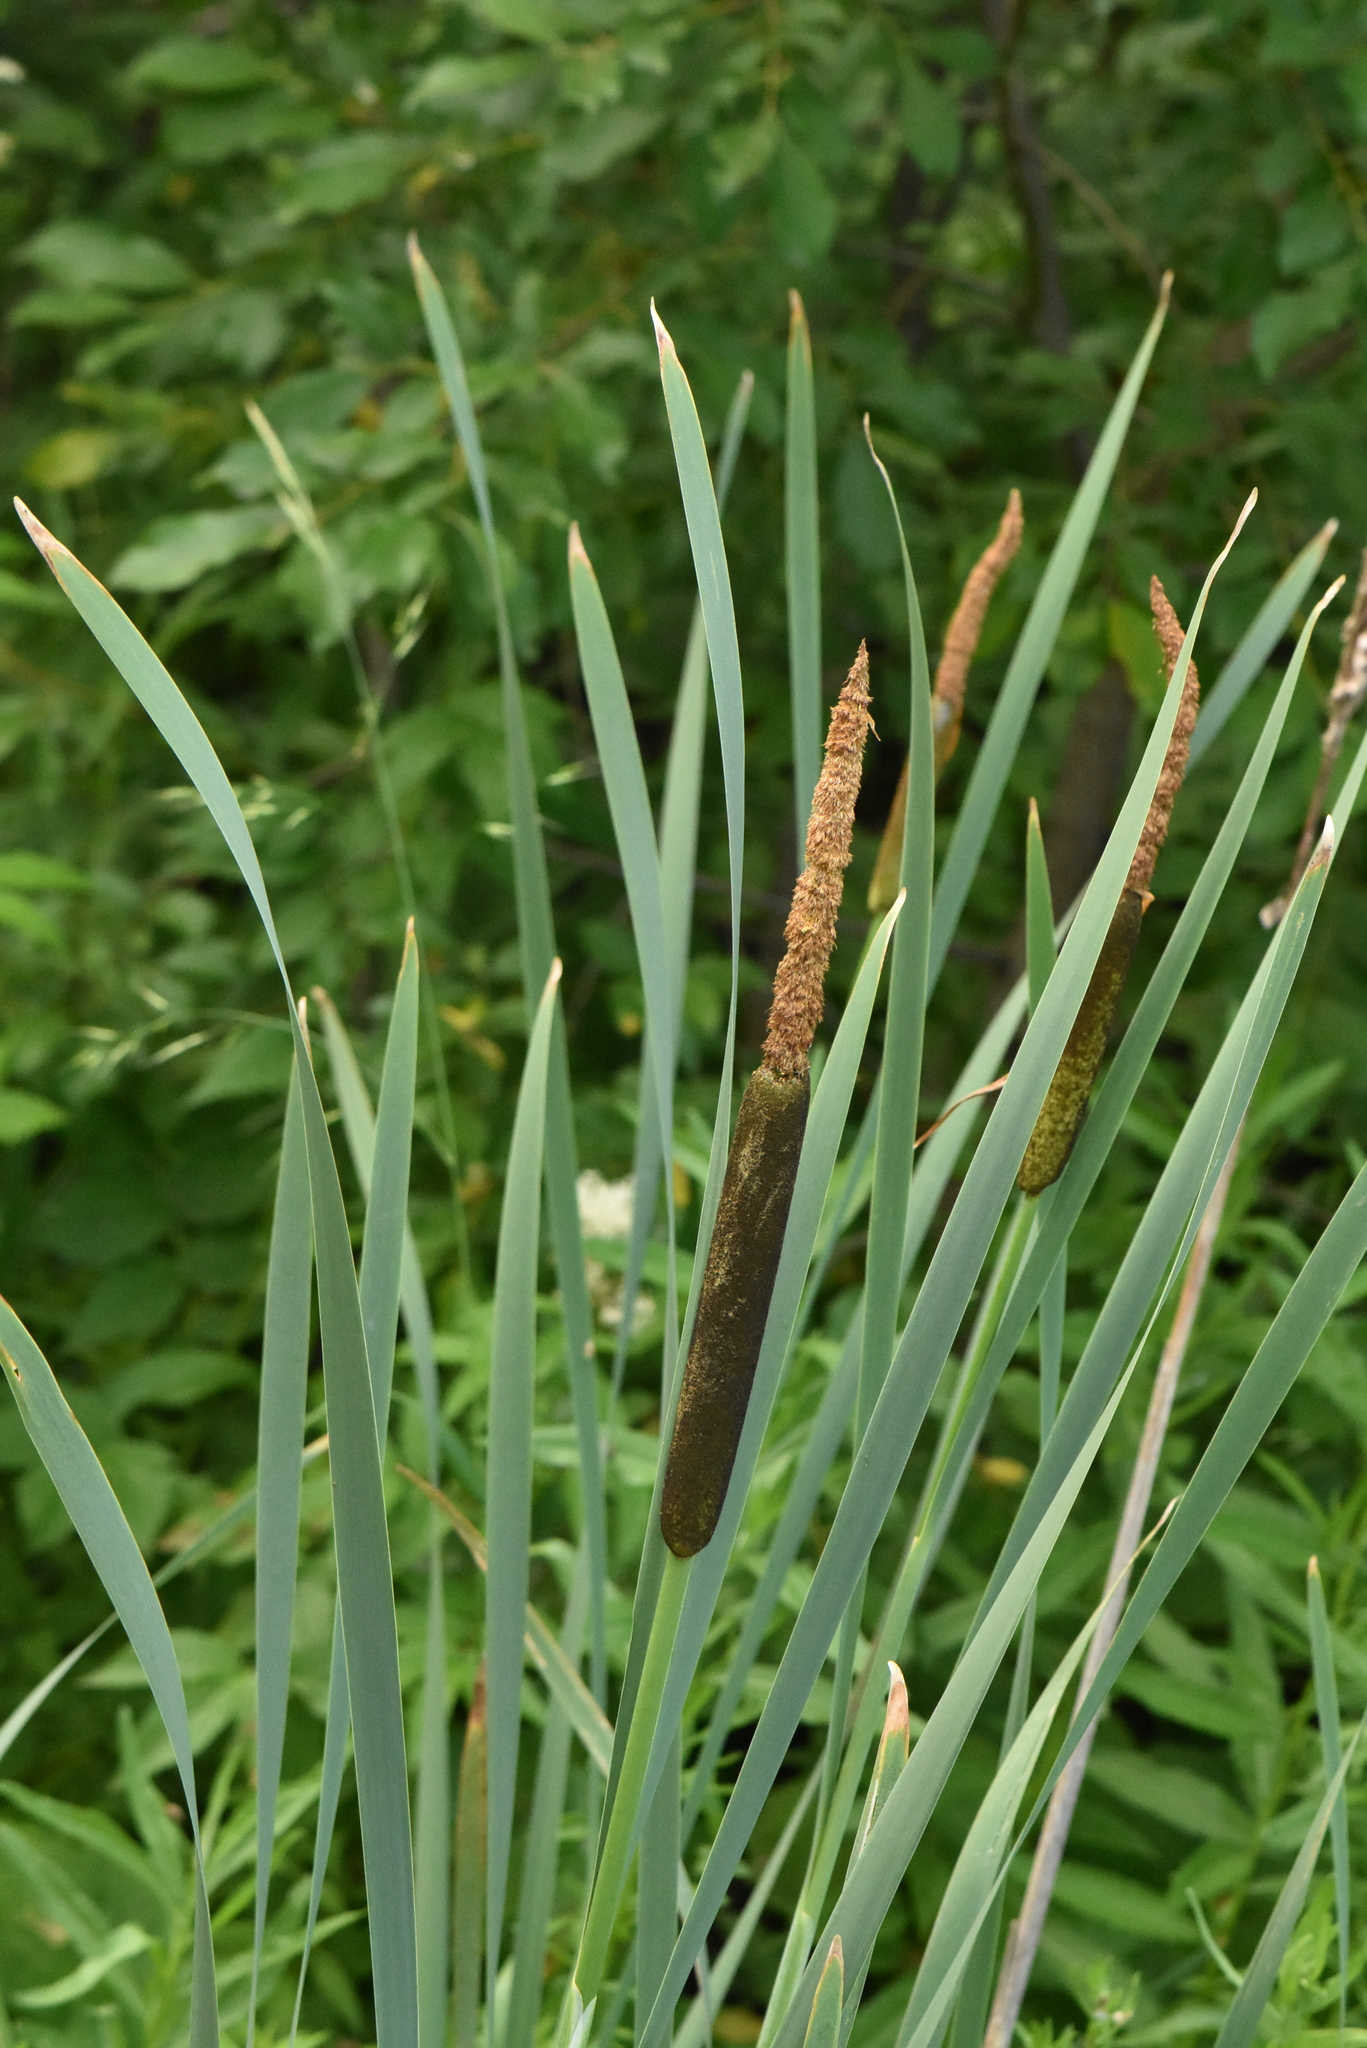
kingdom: Plantae
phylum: Tracheophyta
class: Liliopsida
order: Poales
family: Typhaceae
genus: Typha
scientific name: Typha latifolia
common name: Broadleaf cattail
